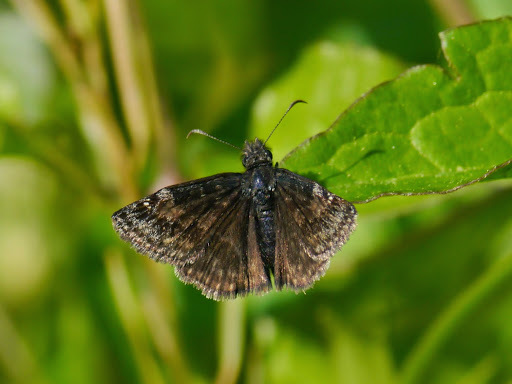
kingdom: Animalia
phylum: Arthropoda
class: Insecta
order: Lepidoptera
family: Hesperiidae
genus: Erynnis
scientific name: Erynnis baptisiae
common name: Wild indigo duskywing
